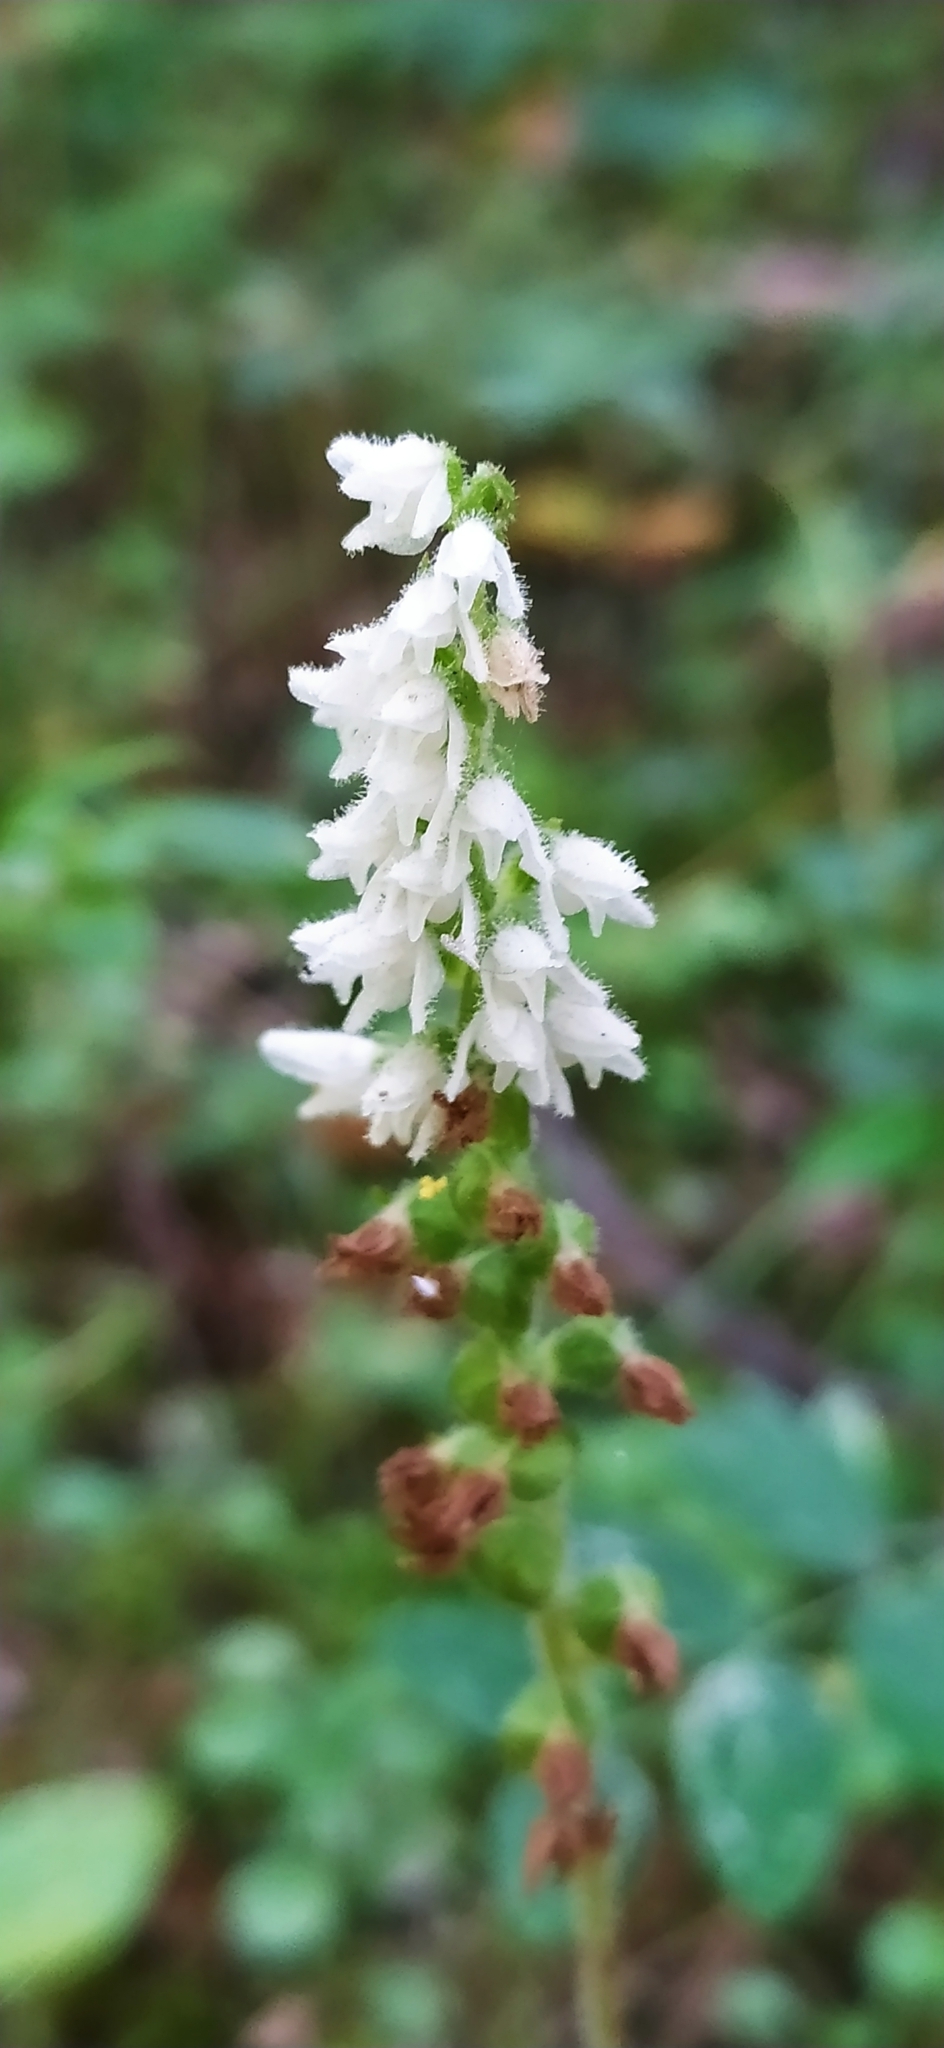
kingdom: Plantae
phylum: Tracheophyta
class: Liliopsida
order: Asparagales
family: Orchidaceae
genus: Goodyera
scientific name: Goodyera repens
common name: Creeping lady's-tresses
